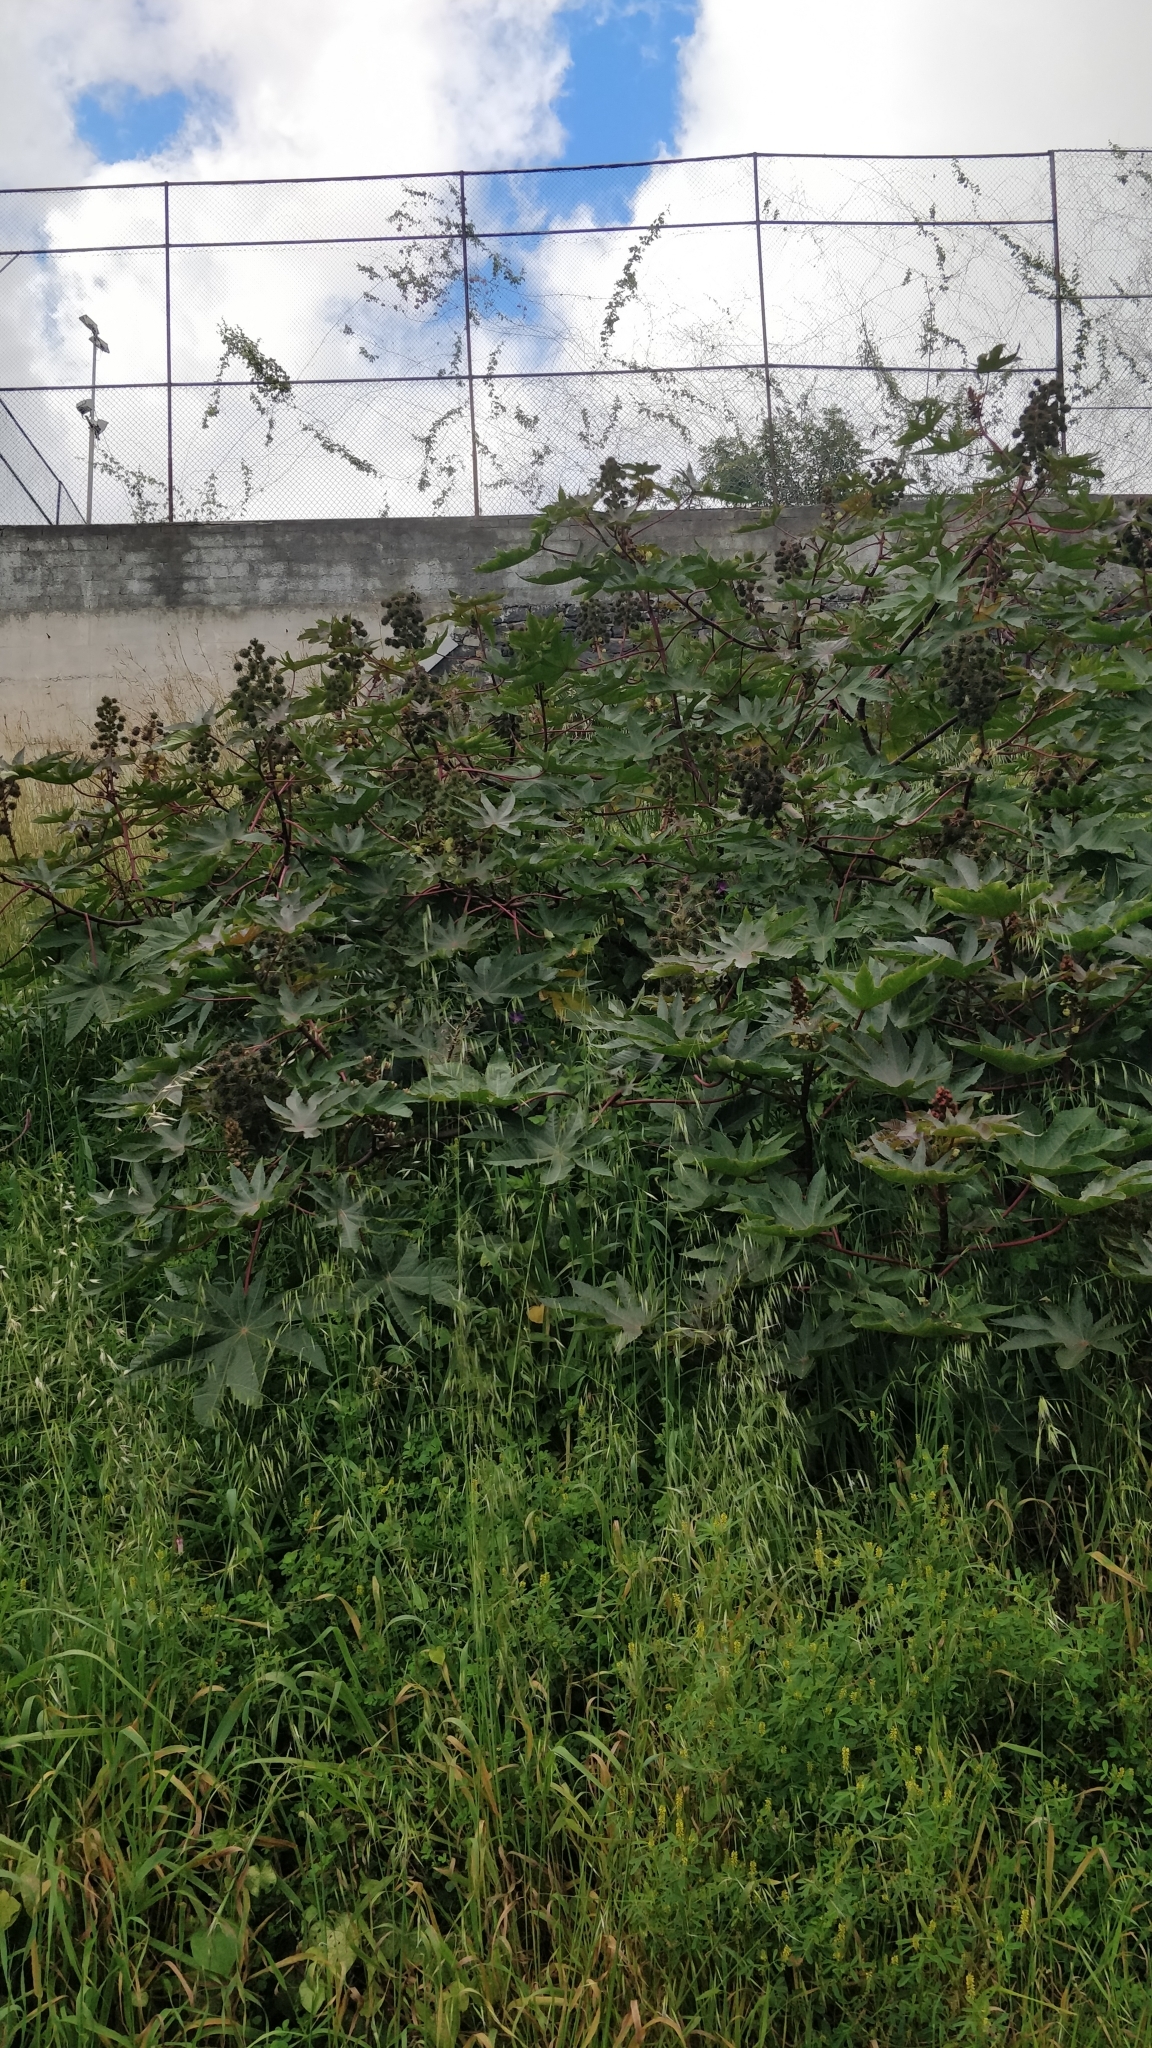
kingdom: Plantae
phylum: Tracheophyta
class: Magnoliopsida
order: Malpighiales
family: Euphorbiaceae
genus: Ricinus
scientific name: Ricinus communis
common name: Castor-oil-plant
